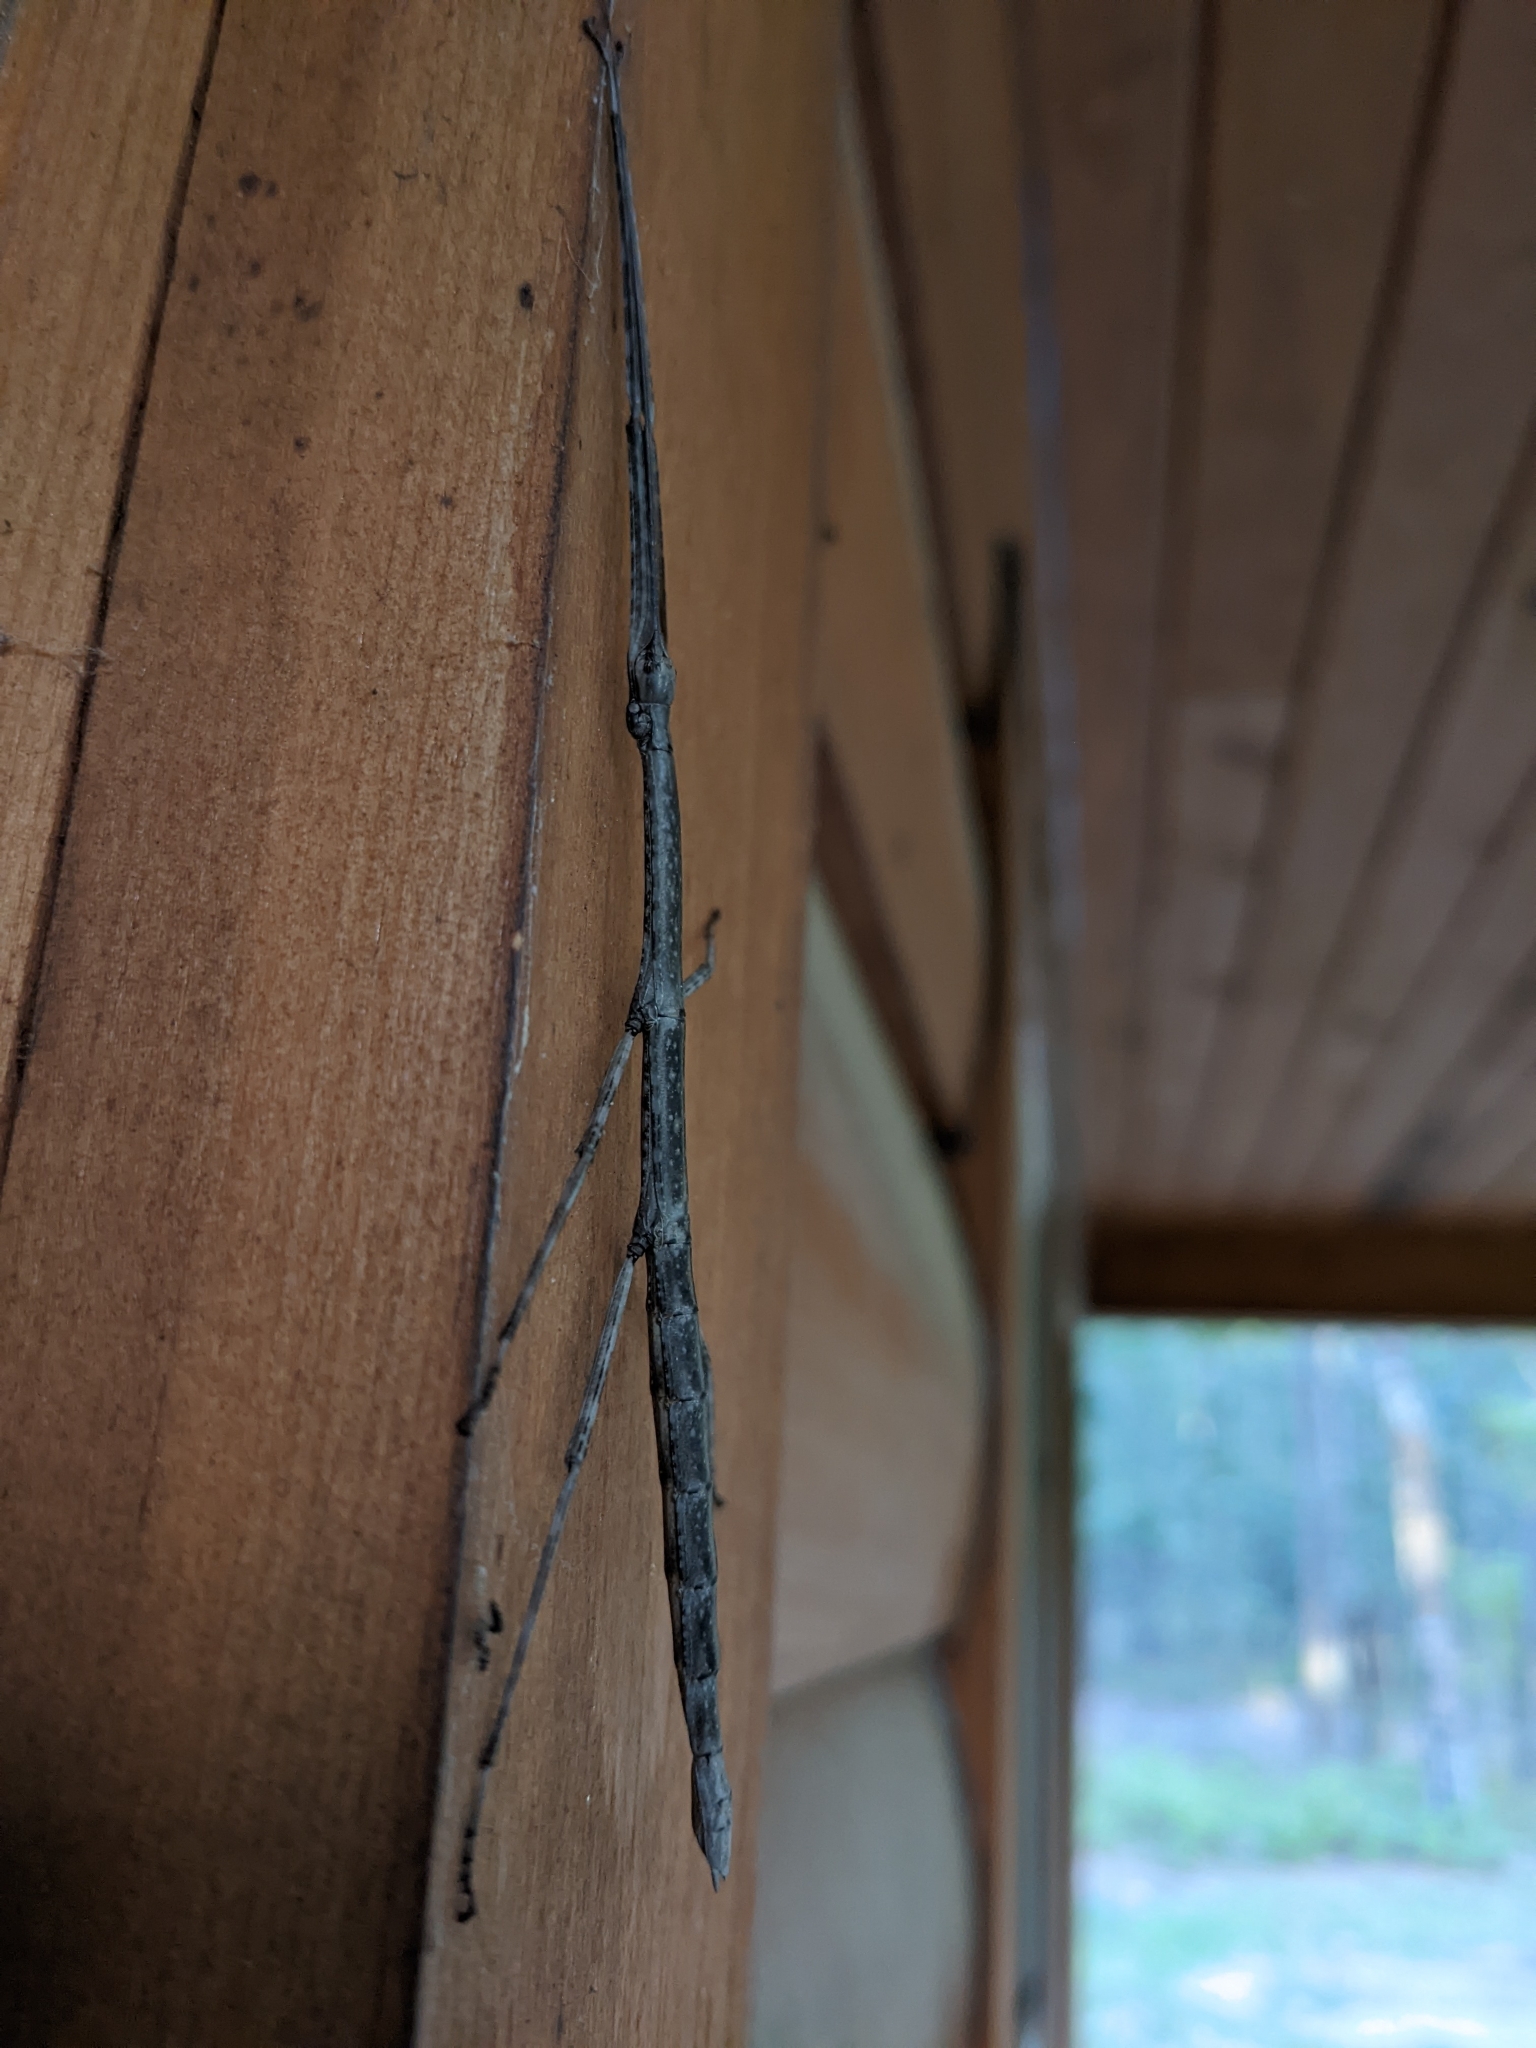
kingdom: Animalia
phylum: Arthropoda
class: Insecta
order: Phasmida
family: Diapheromeridae
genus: Diapheromera
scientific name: Diapheromera femorata
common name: Common american walkingstick
